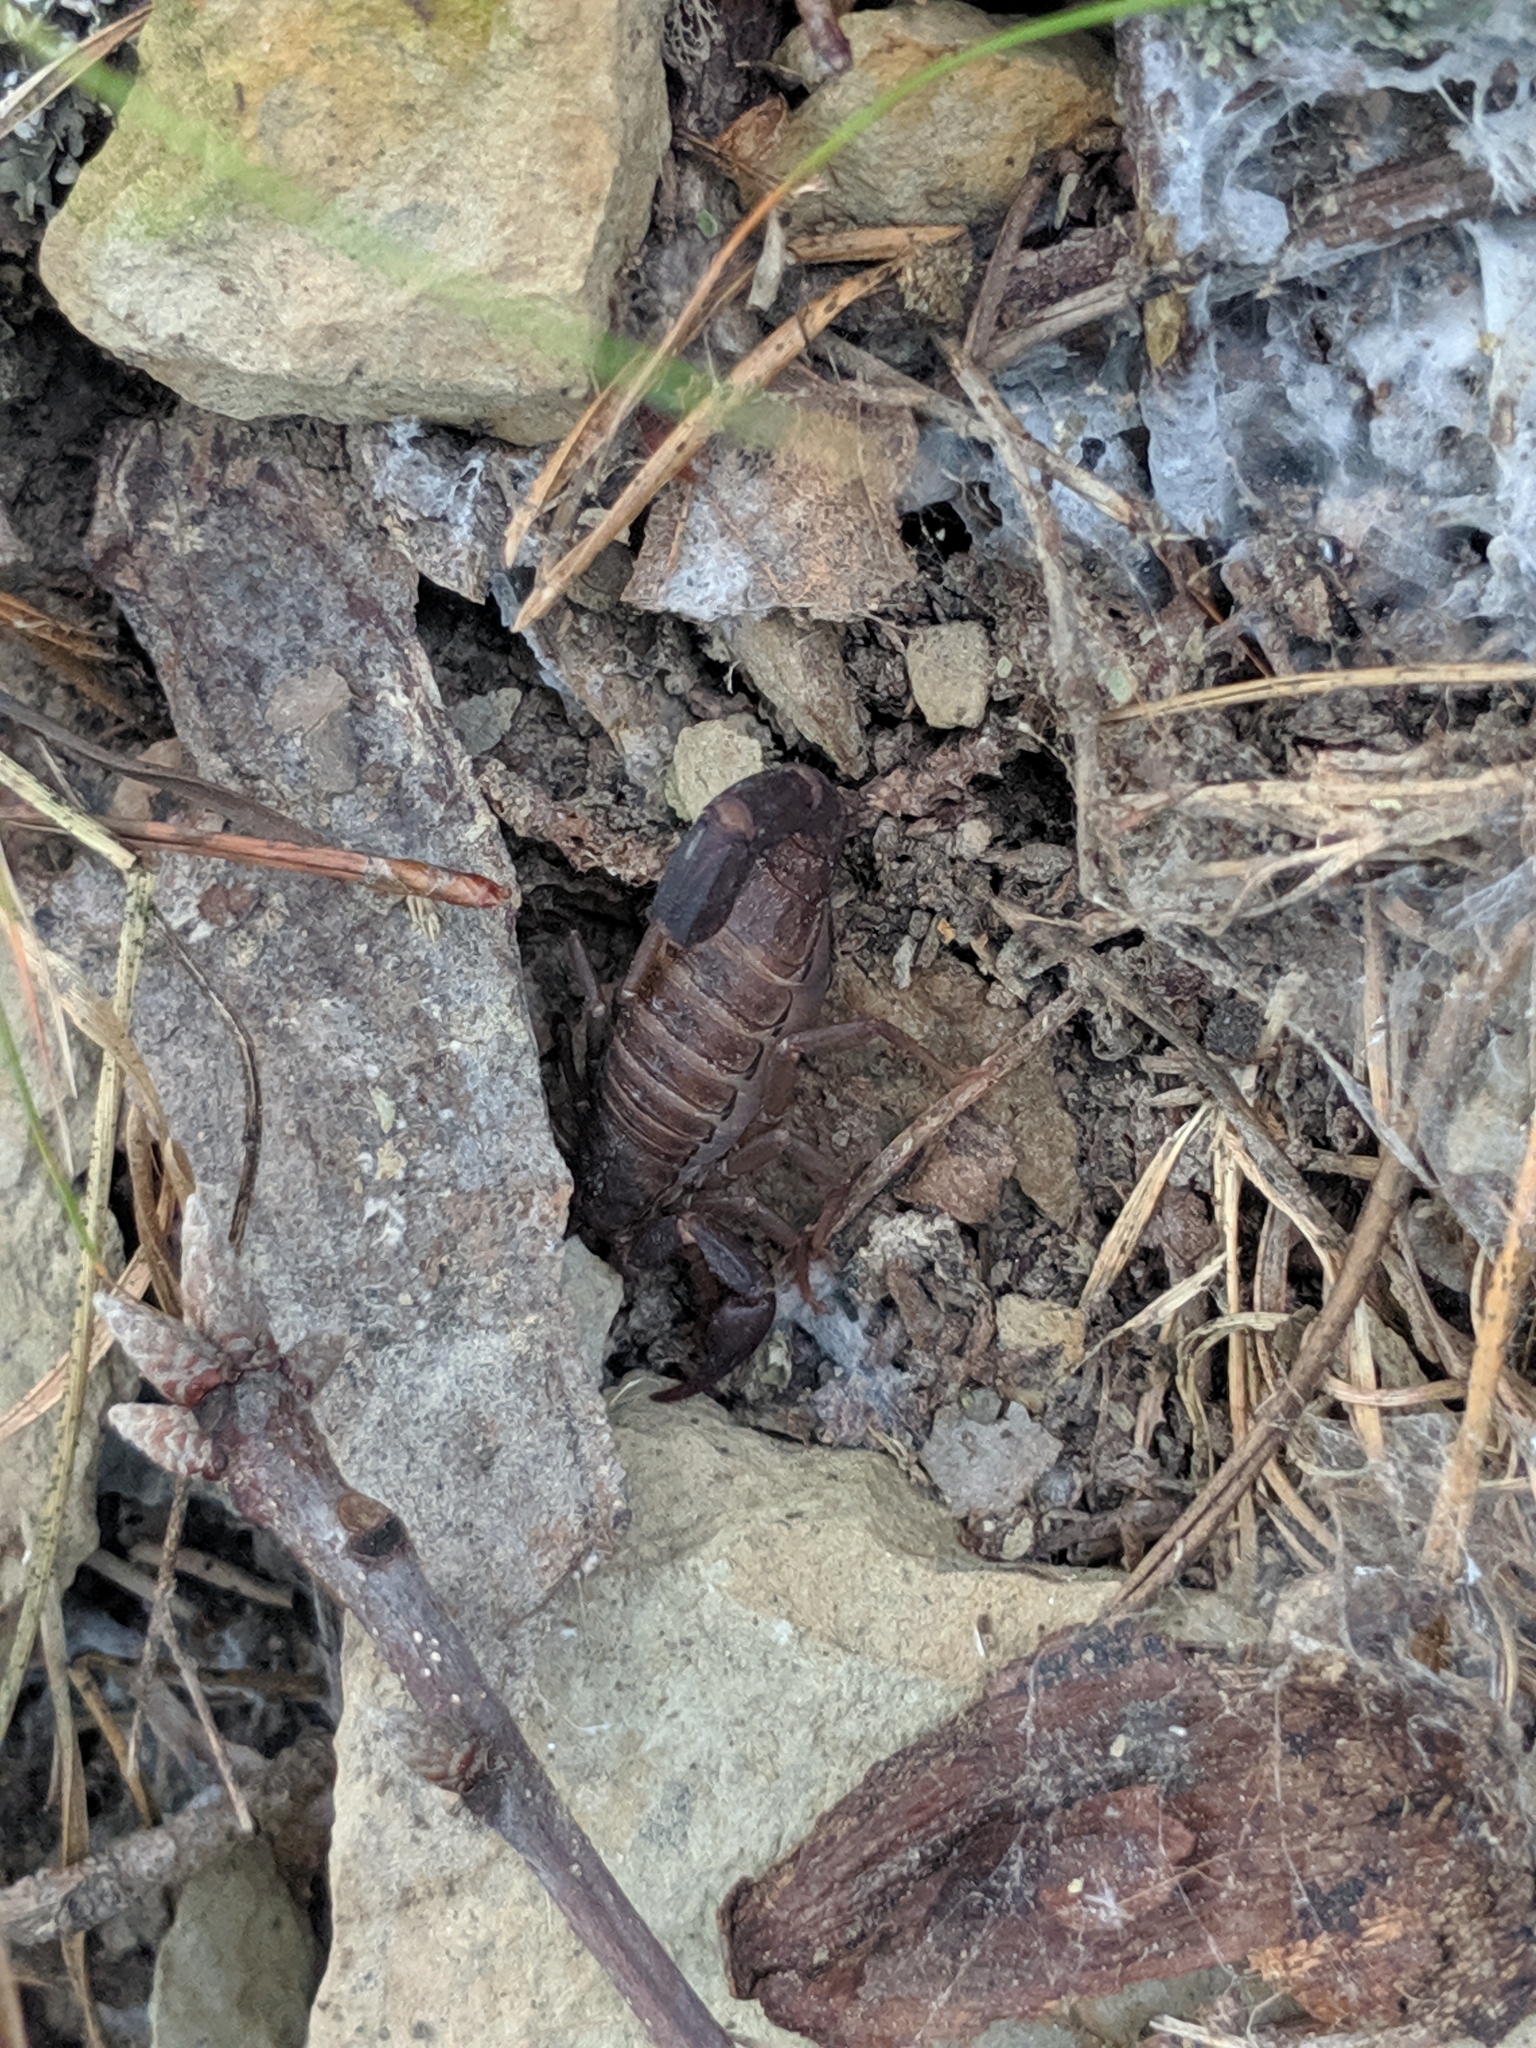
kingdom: Animalia
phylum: Arthropoda
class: Arachnida
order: Scorpiones
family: Vaejovidae
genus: Vaejovis
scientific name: Vaejovis carolinianus
